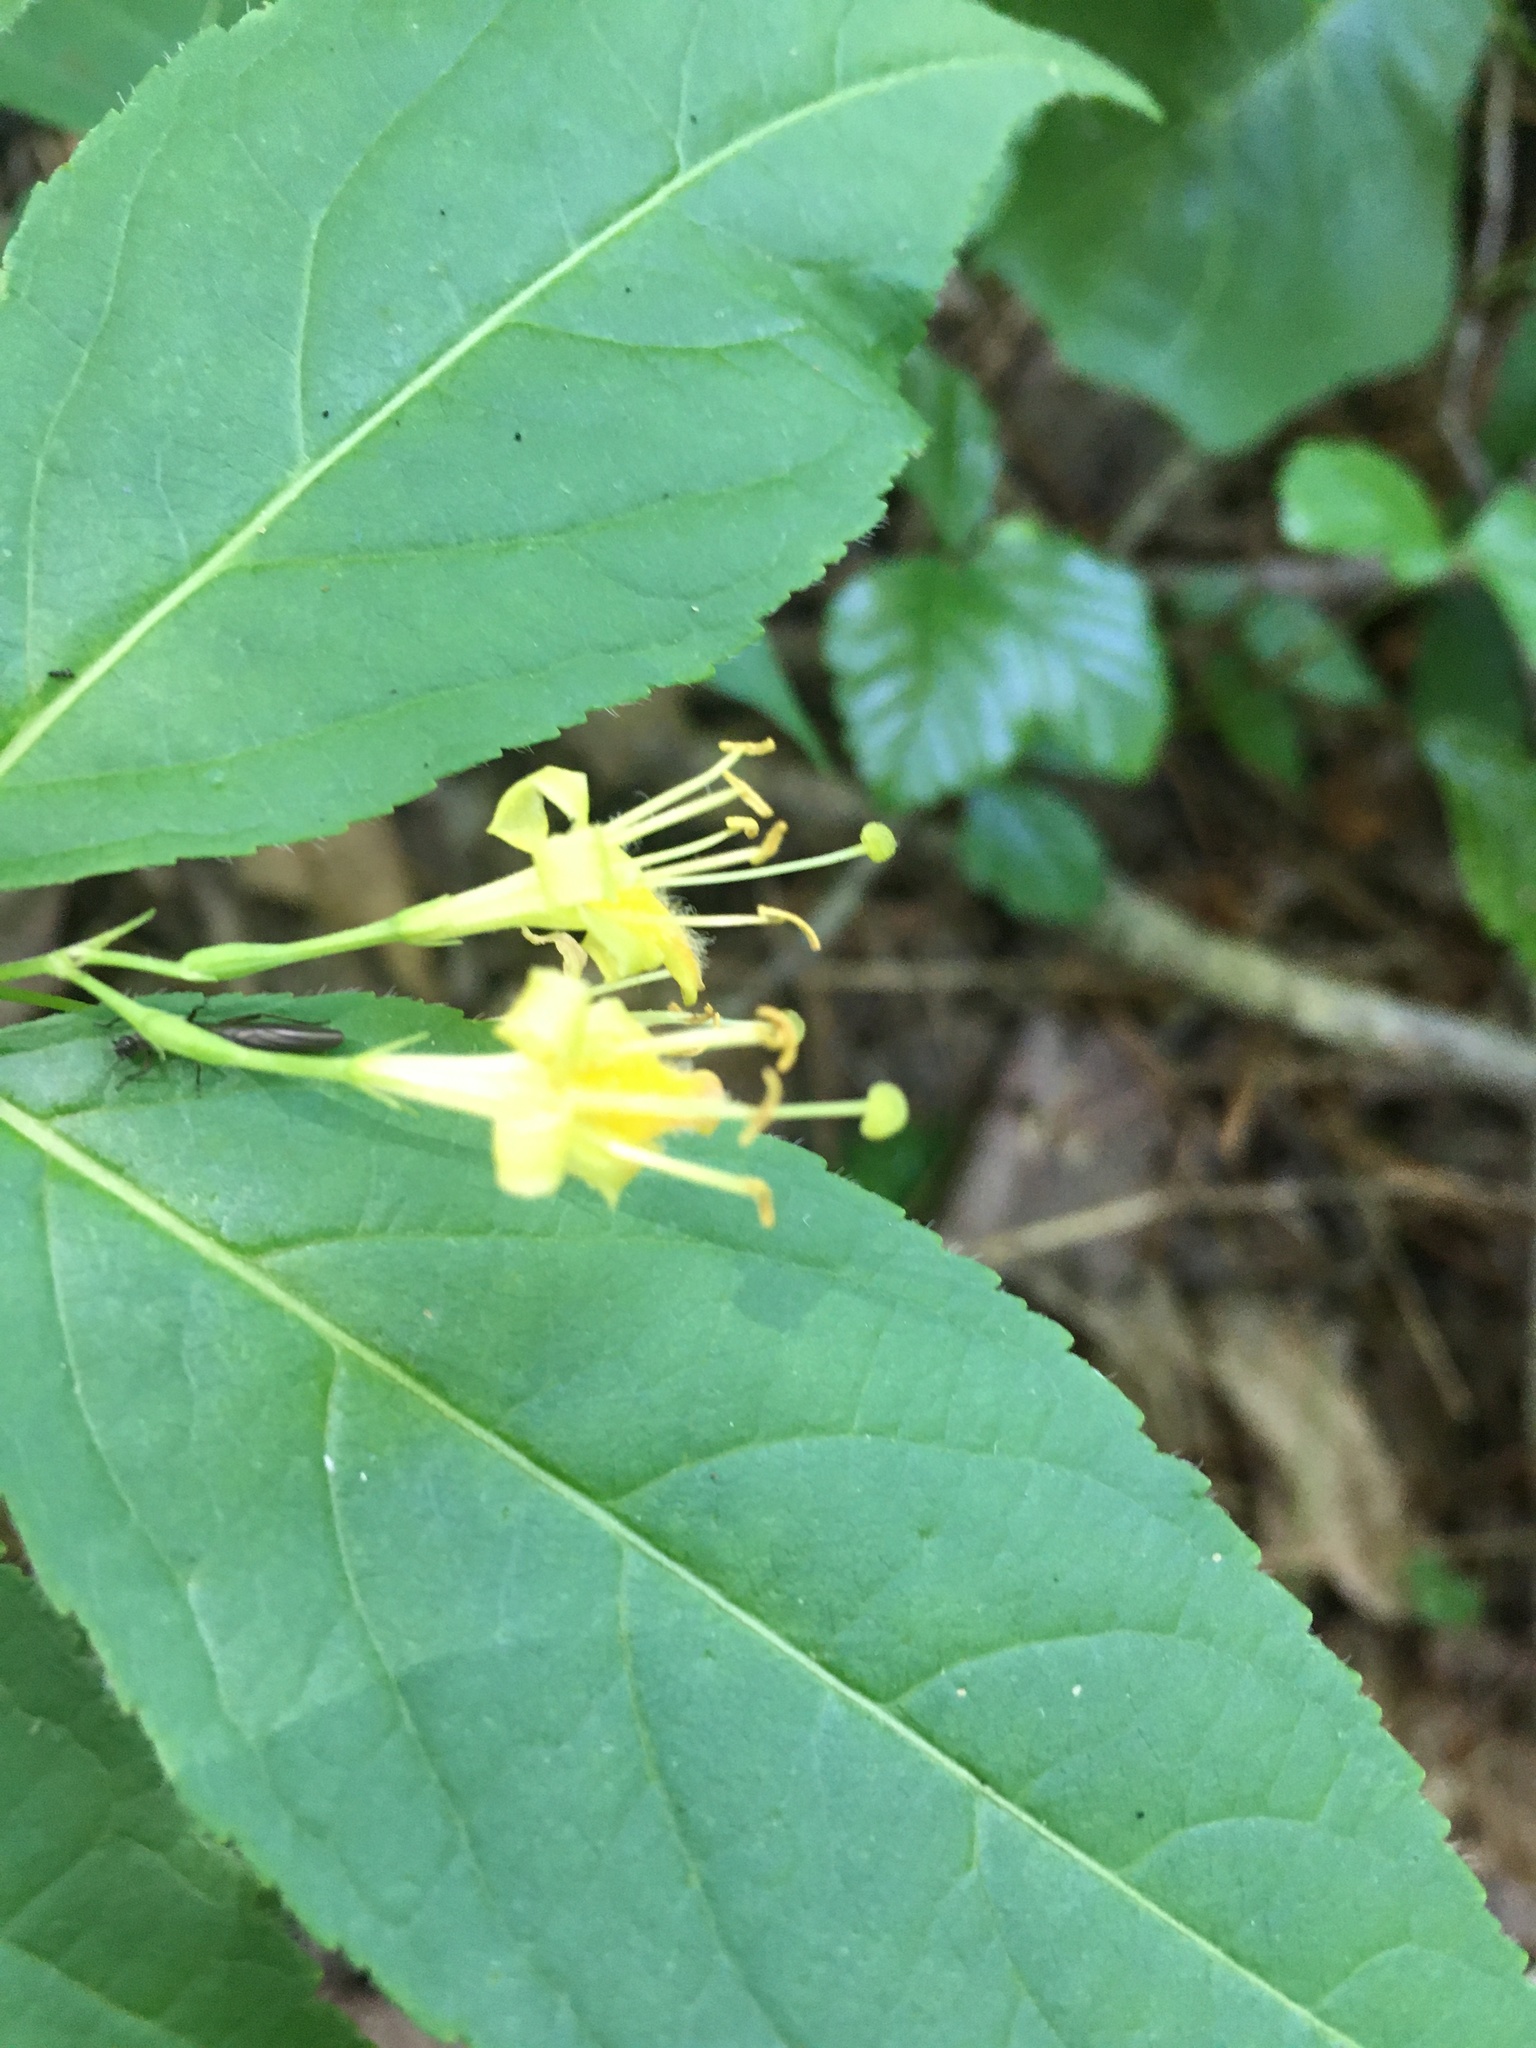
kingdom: Plantae
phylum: Tracheophyta
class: Magnoliopsida
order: Dipsacales
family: Caprifoliaceae
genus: Diervilla
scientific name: Diervilla lonicera
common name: Bush-honeysuckle
